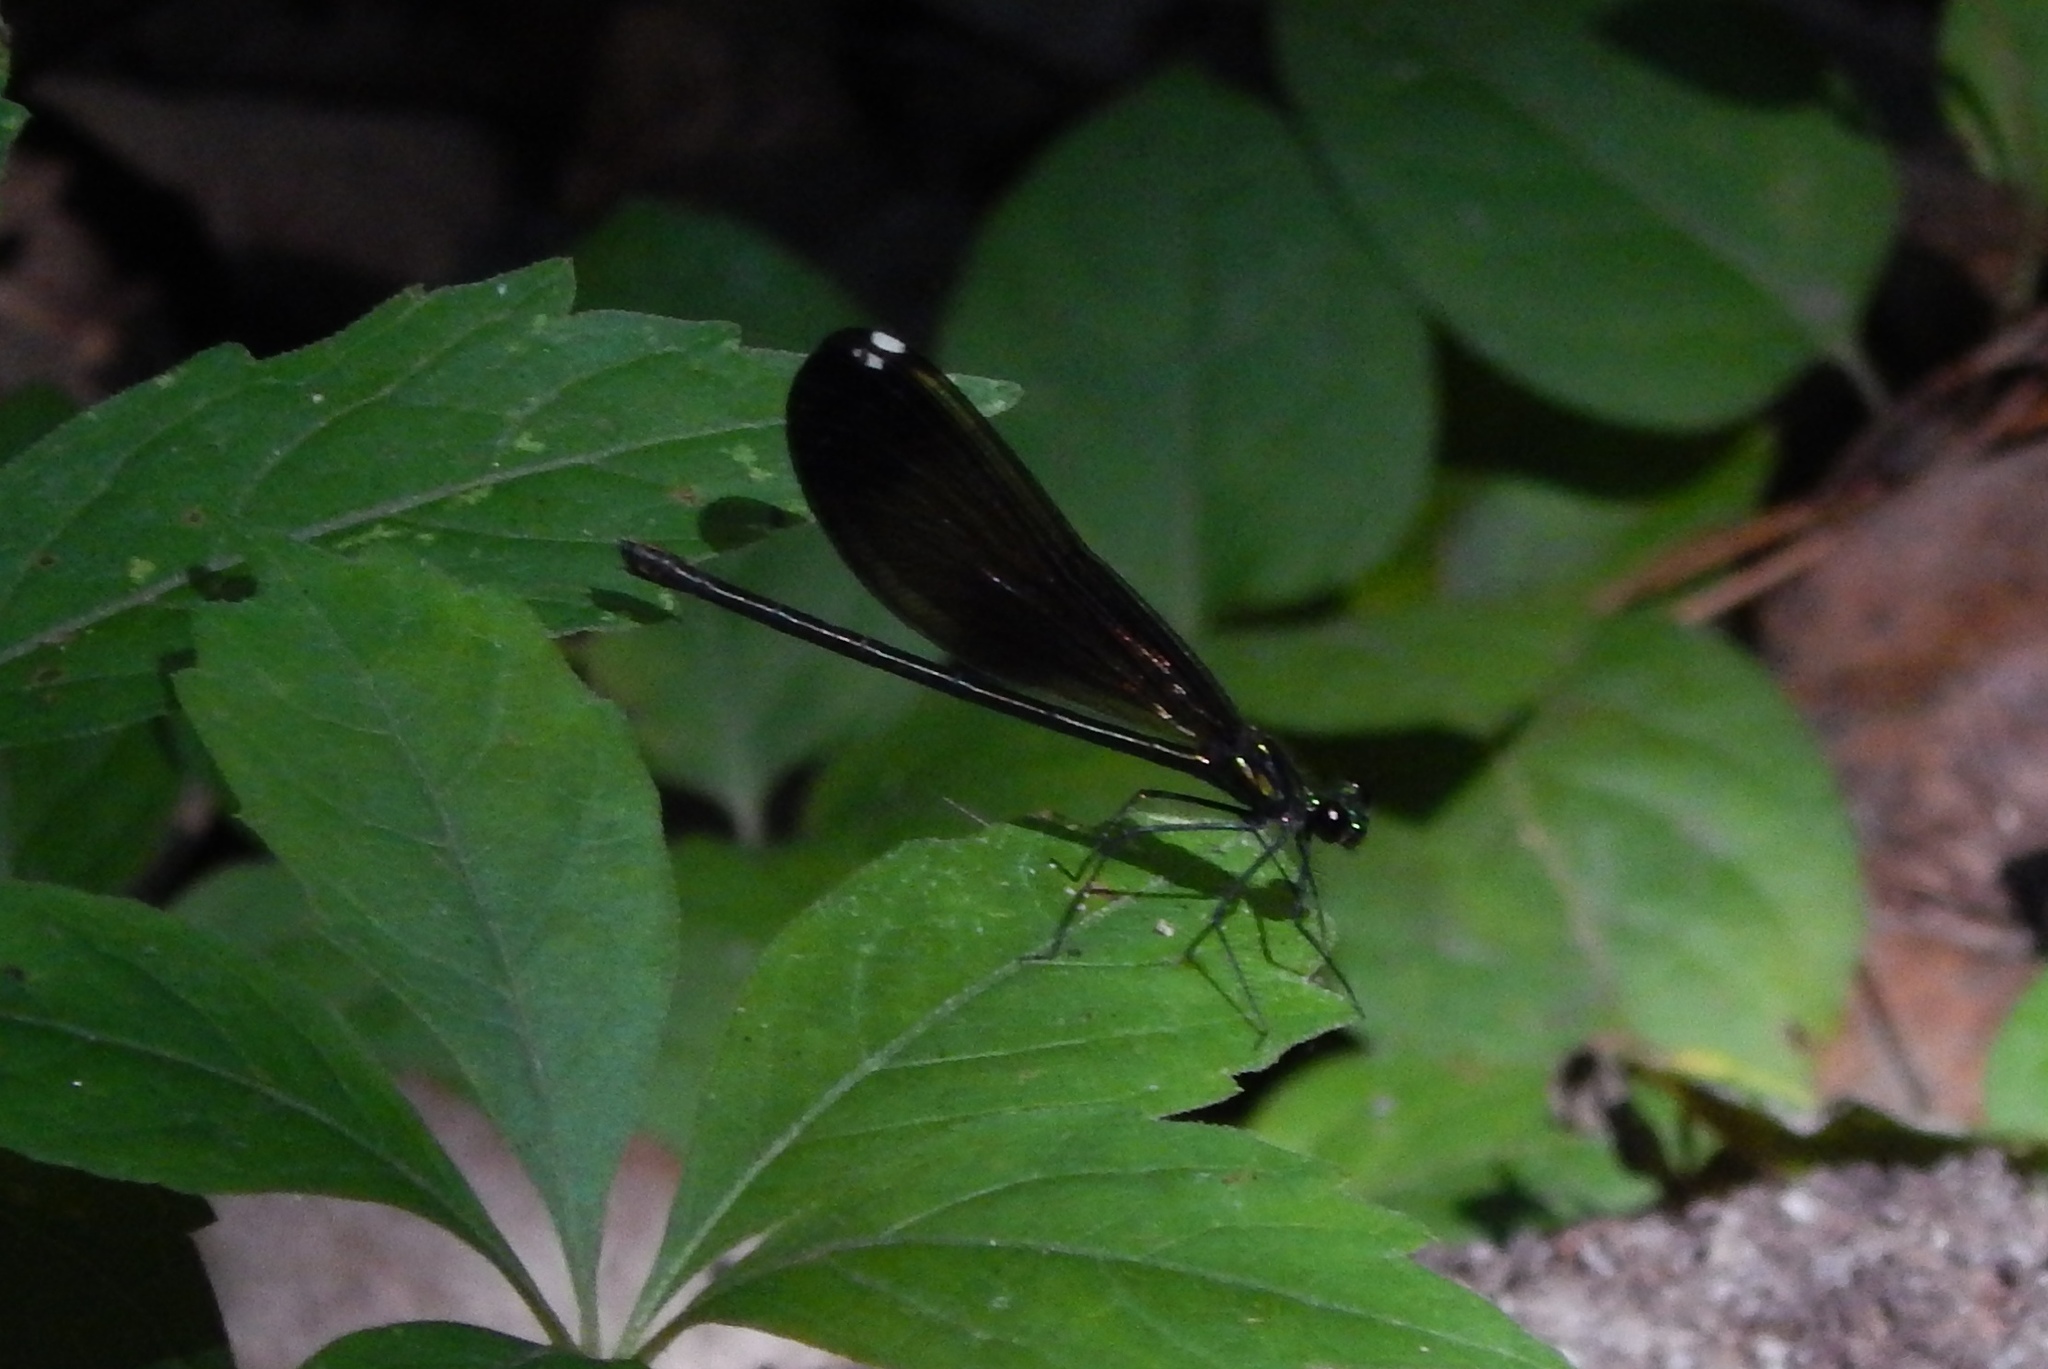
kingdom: Animalia
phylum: Arthropoda
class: Insecta
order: Odonata
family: Calopterygidae
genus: Calopteryx
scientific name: Calopteryx maculata
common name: Ebony jewelwing
